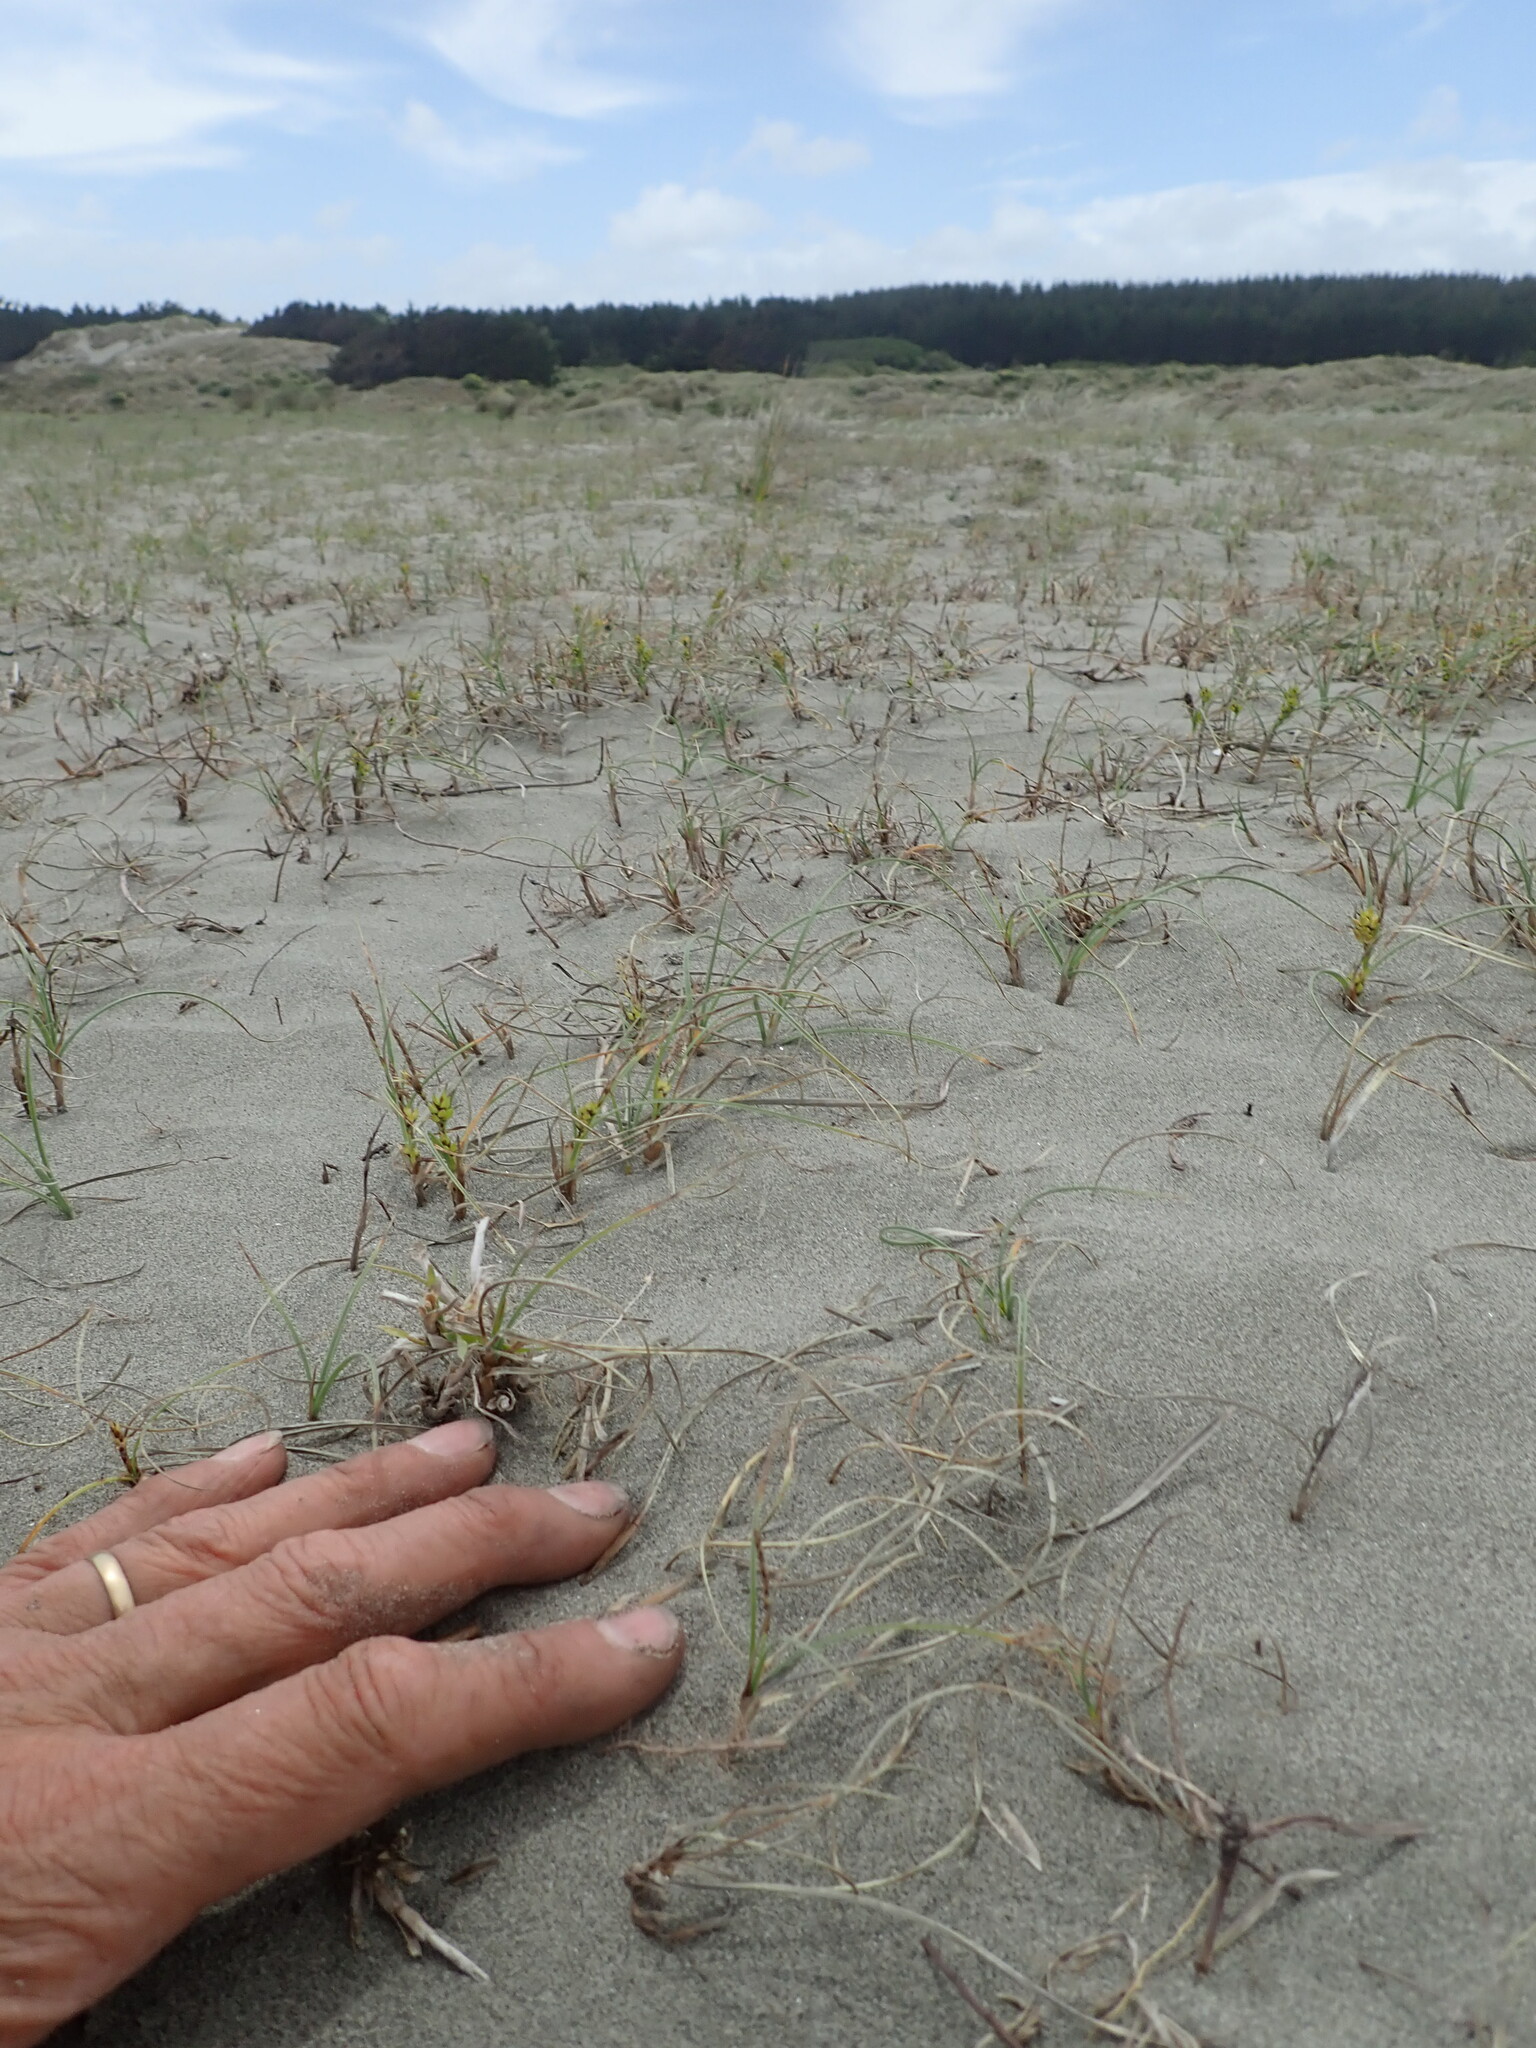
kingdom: Animalia
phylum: Arthropoda
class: Insecta
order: Coleoptera
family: Carabidae
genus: Zecicindela
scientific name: Zecicindela feredayi
